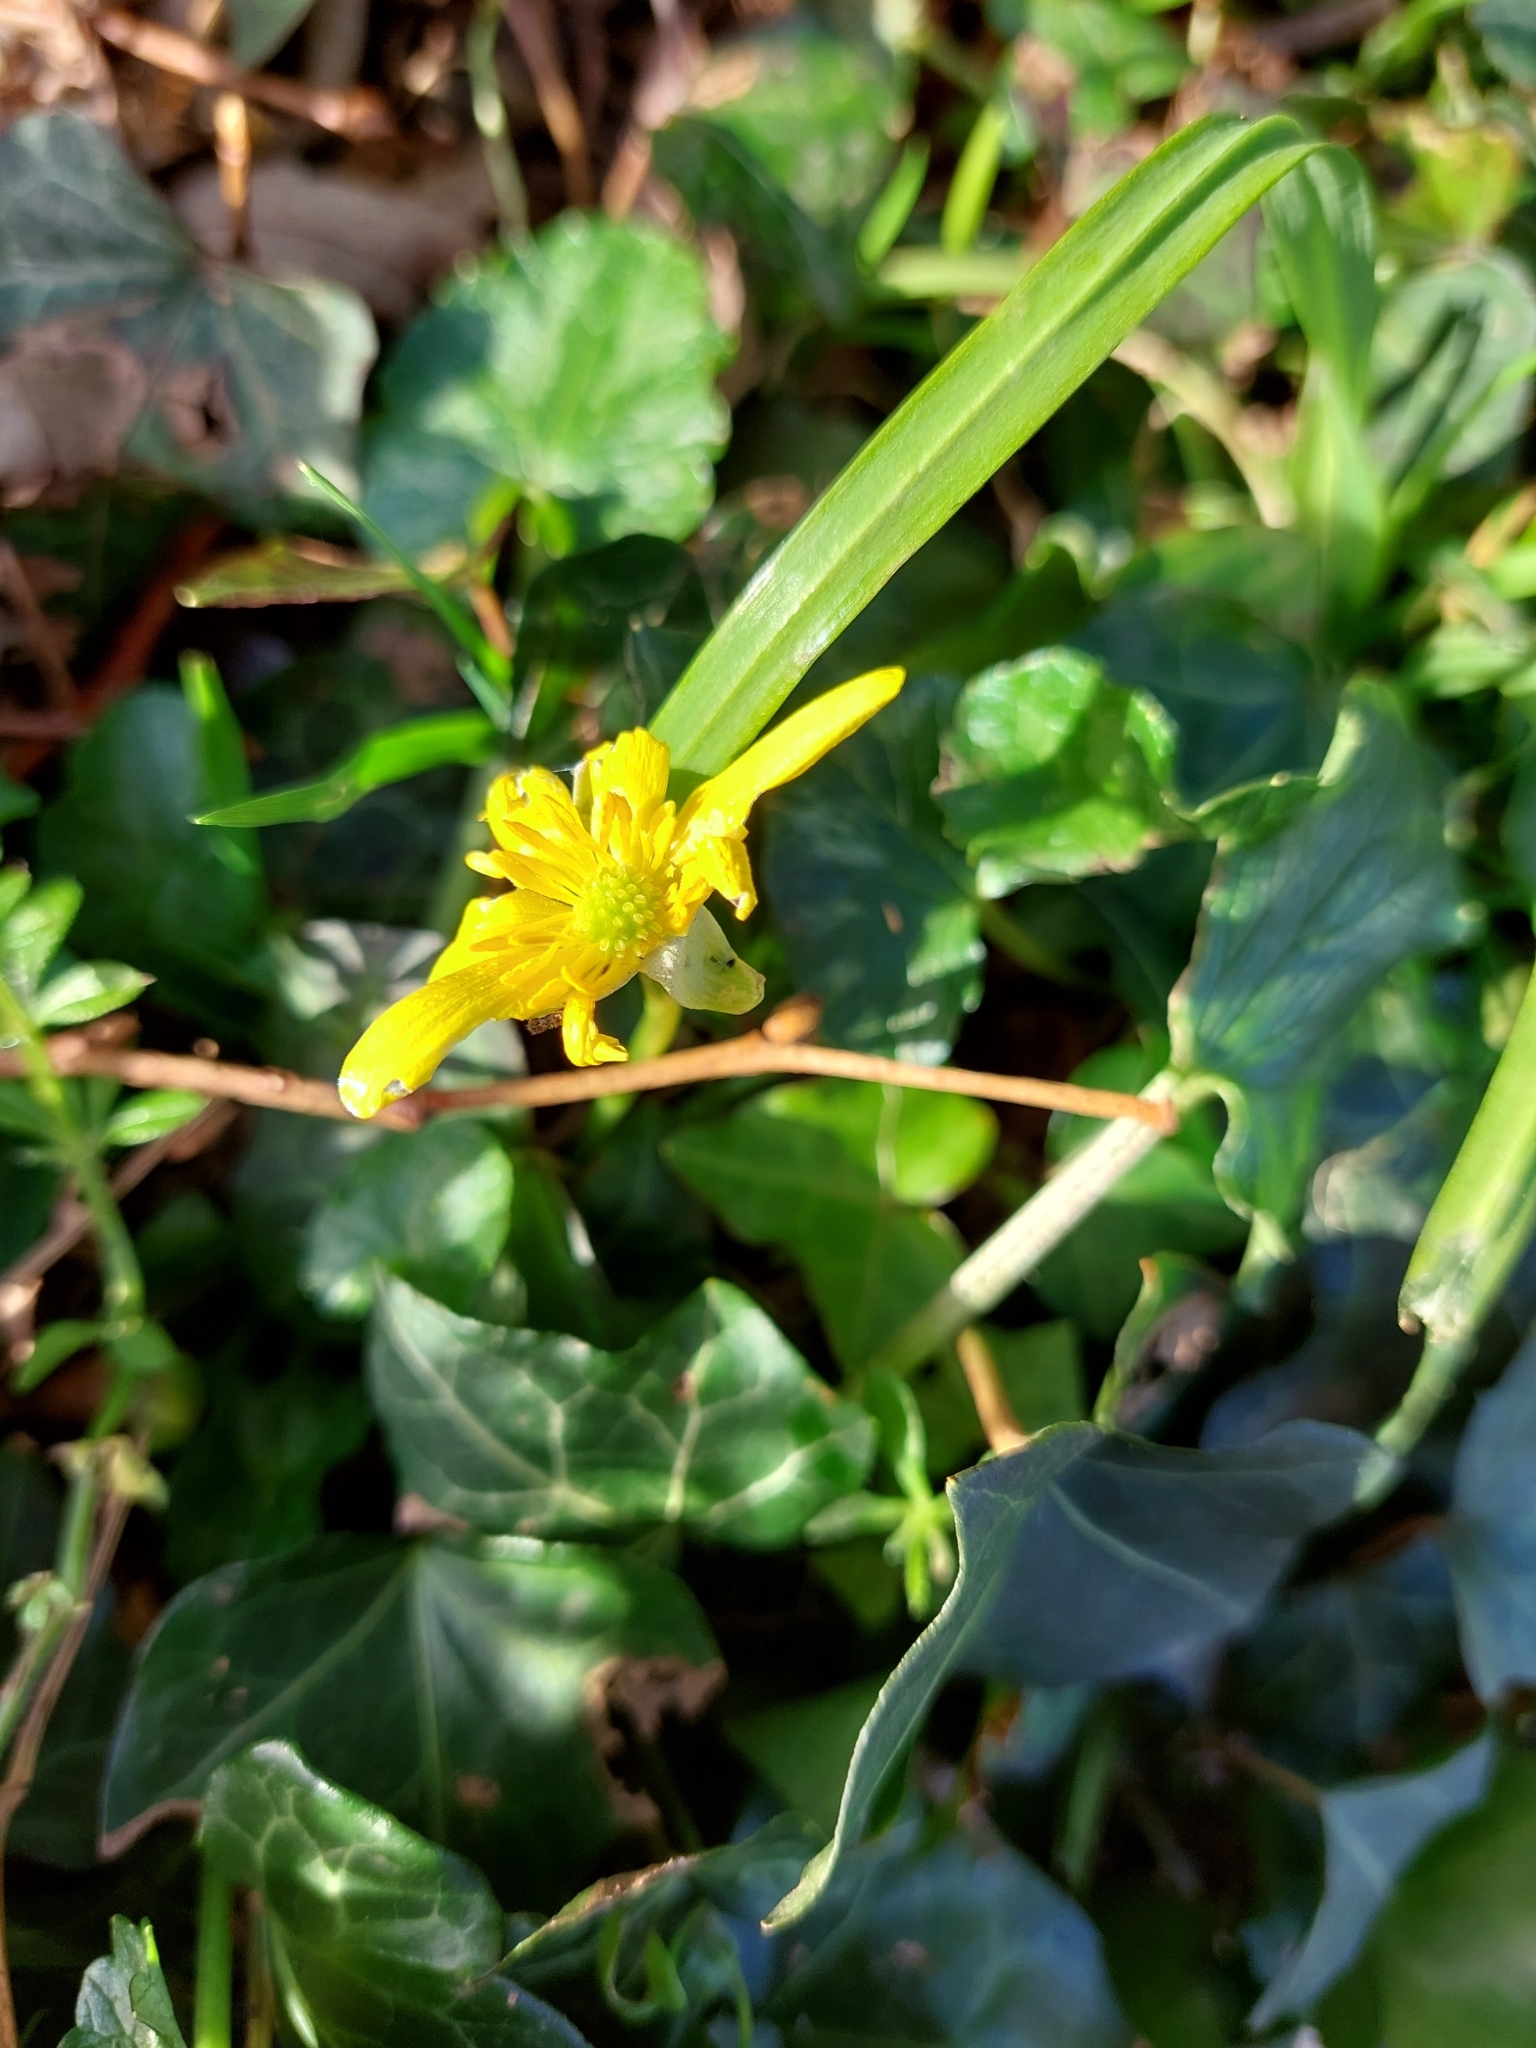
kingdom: Plantae
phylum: Tracheophyta
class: Magnoliopsida
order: Ranunculales
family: Ranunculaceae
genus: Ficaria
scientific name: Ficaria verna
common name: Lesser celandine
